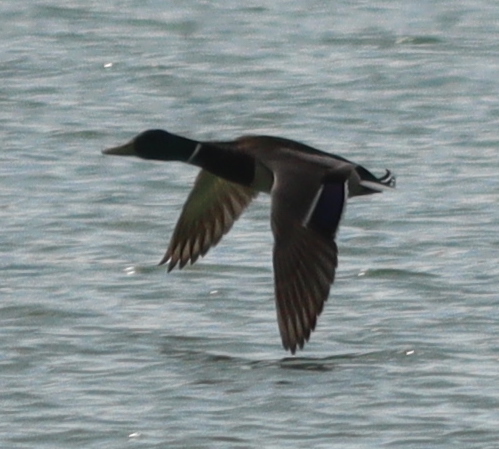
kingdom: Animalia
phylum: Chordata
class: Aves
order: Anseriformes
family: Anatidae
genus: Anas
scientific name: Anas platyrhynchos
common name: Mallard
